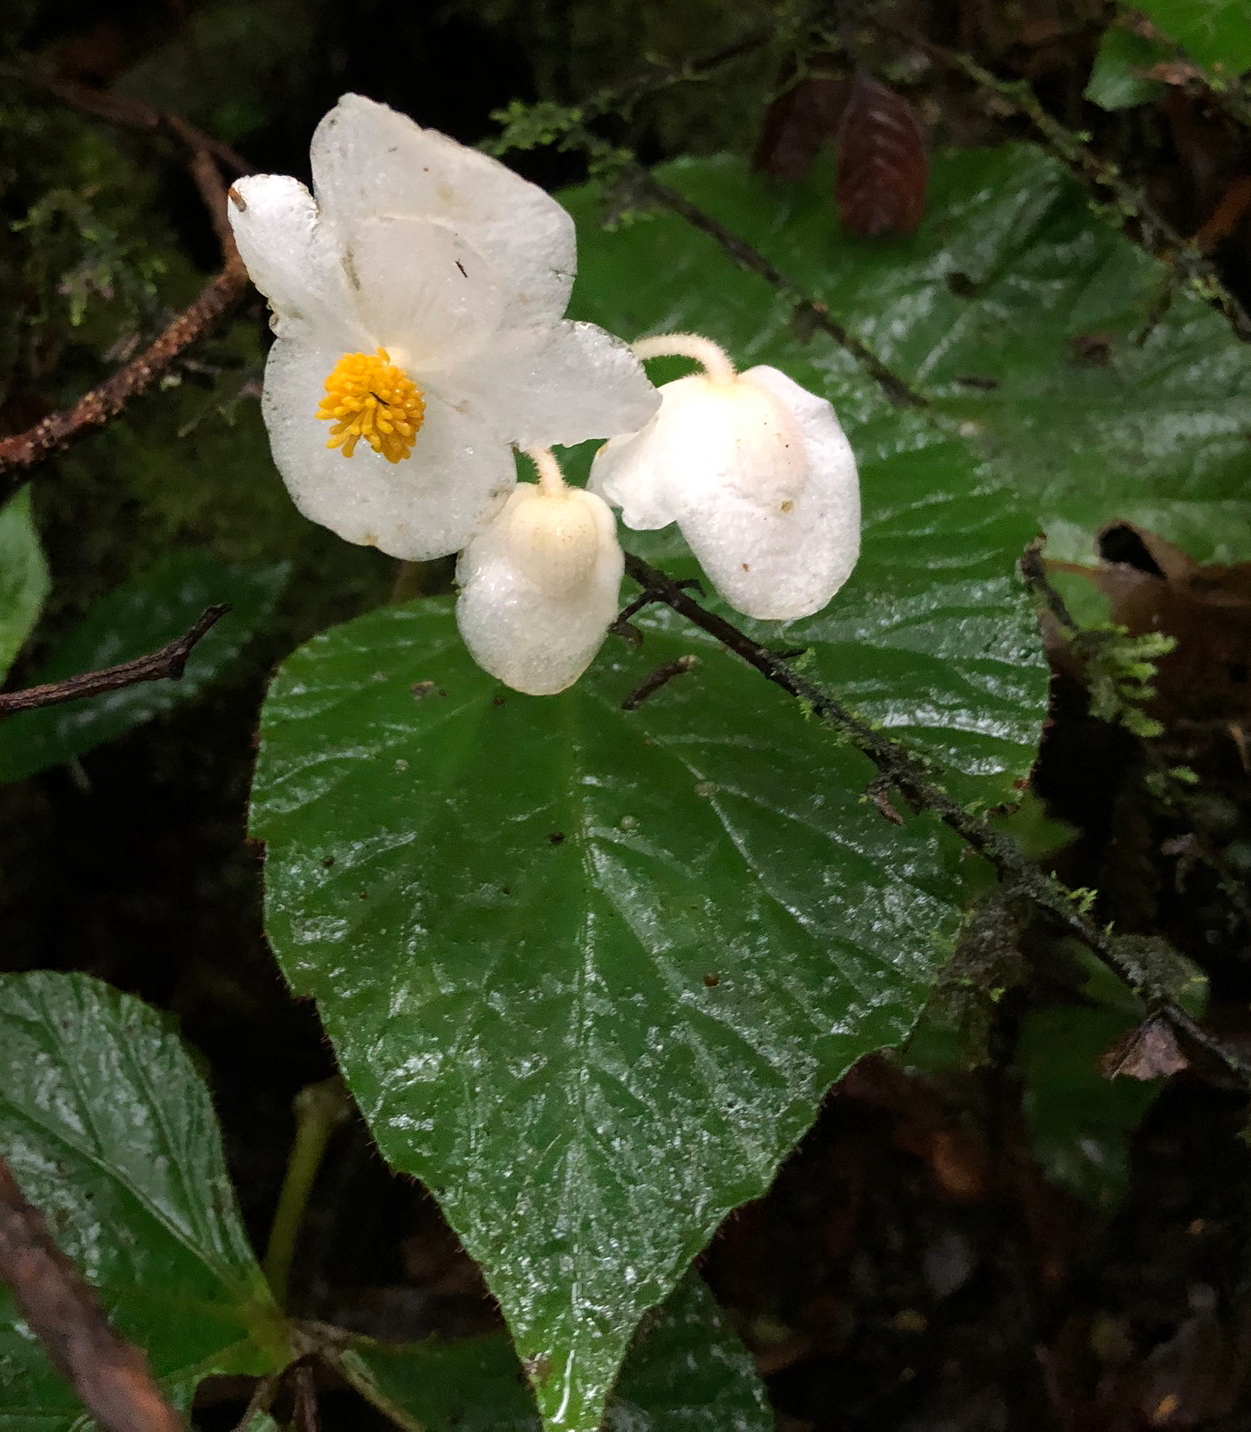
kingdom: Plantae
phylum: Tracheophyta
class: Magnoliopsida
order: Cucurbitales
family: Begoniaceae
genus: Begonia
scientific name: Begonia teysmanniana
